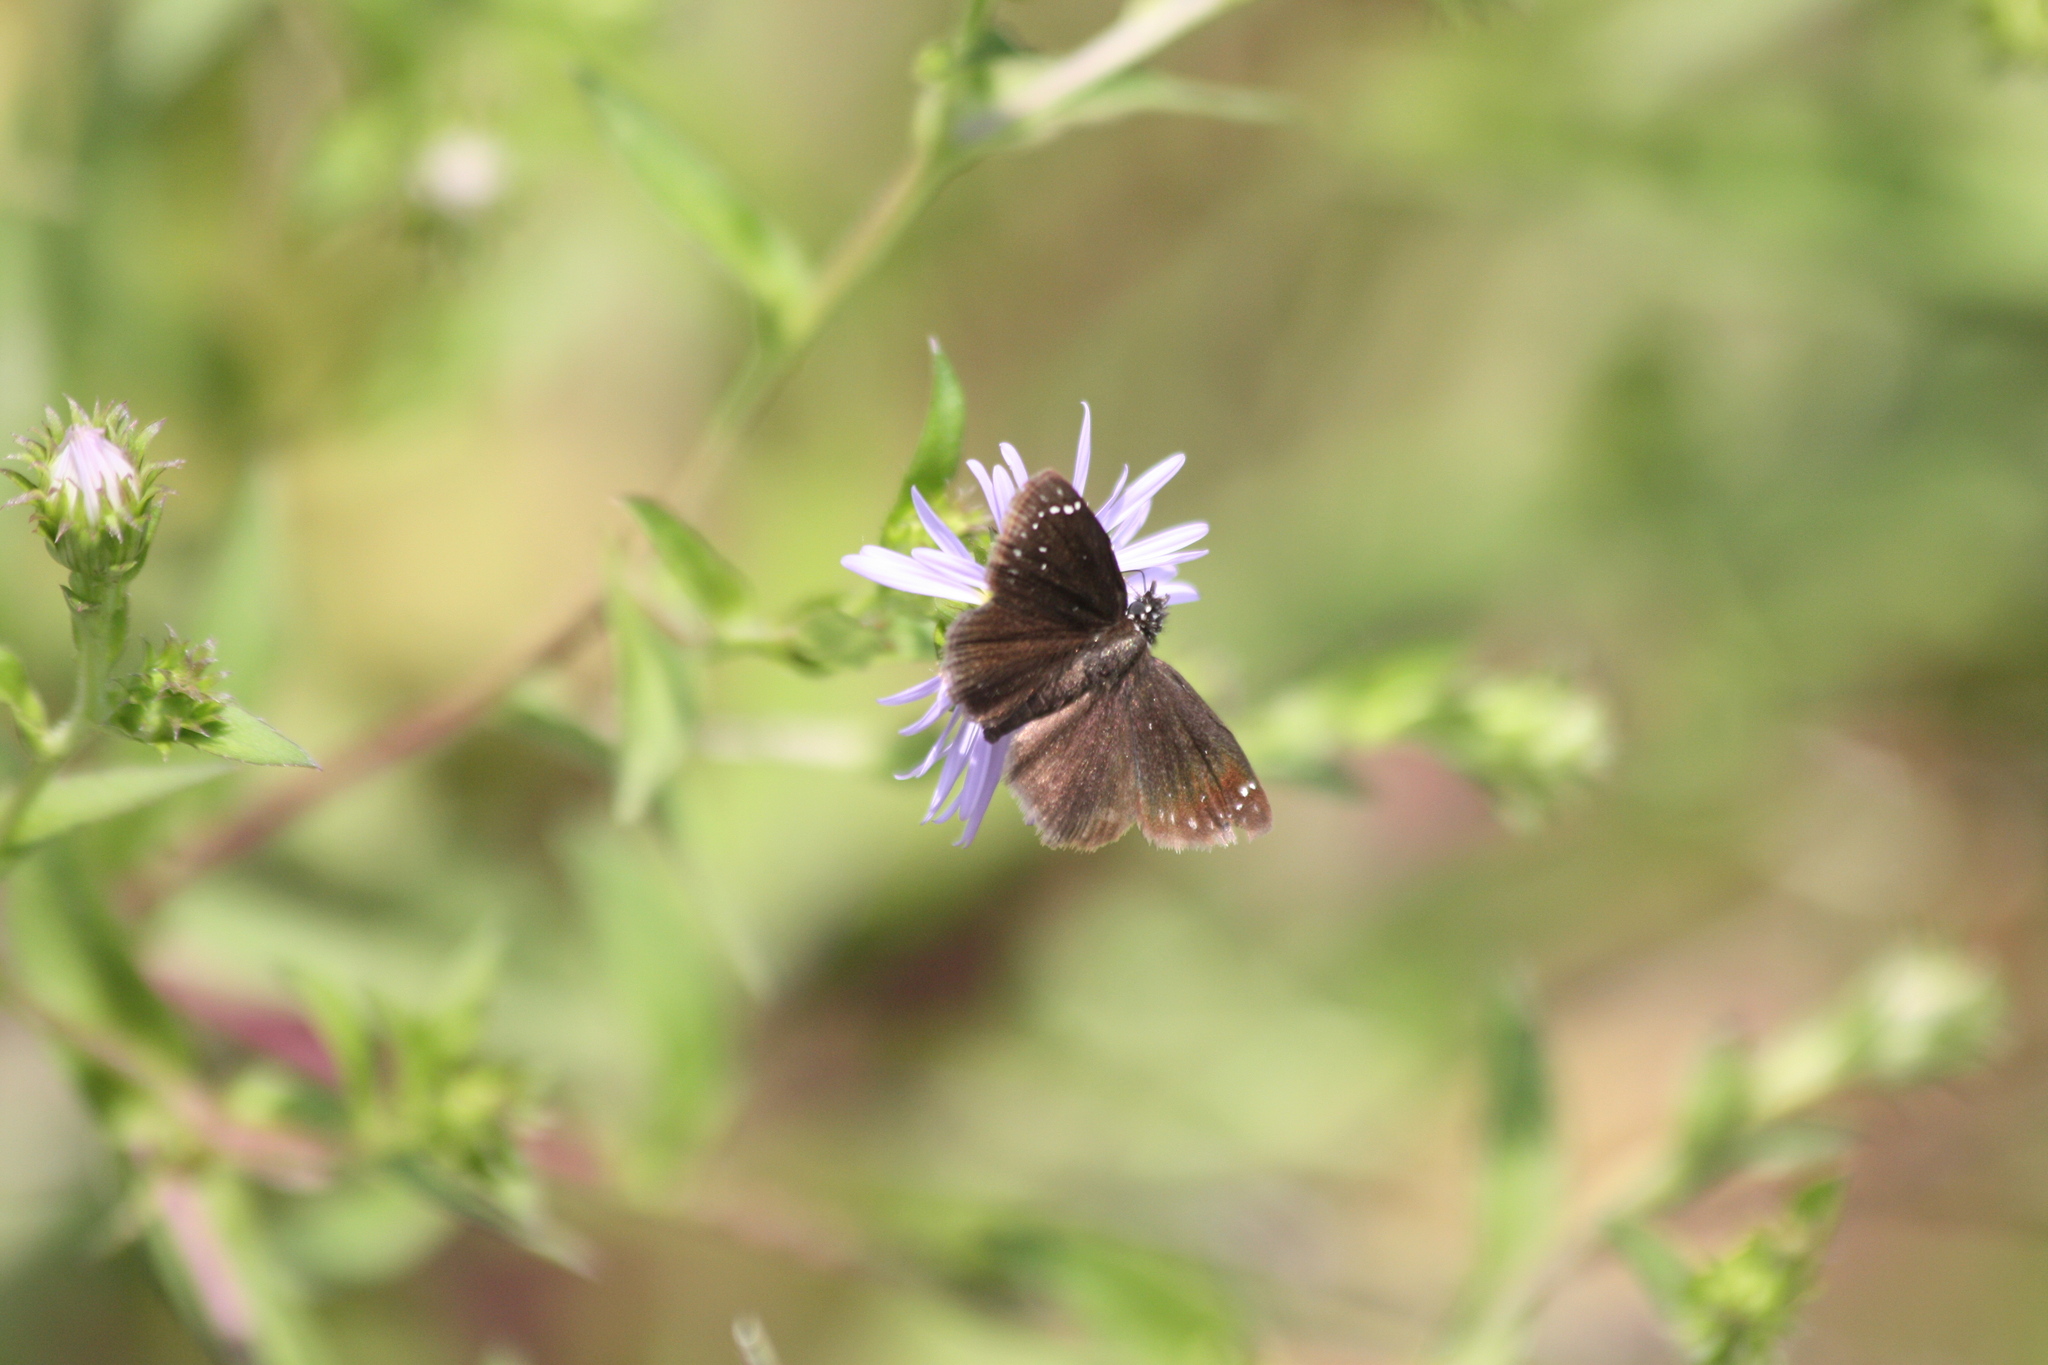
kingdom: Animalia
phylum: Arthropoda
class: Insecta
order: Lepidoptera
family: Hesperiidae
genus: Pholisora
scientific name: Pholisora catullus
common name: Common sootywing
